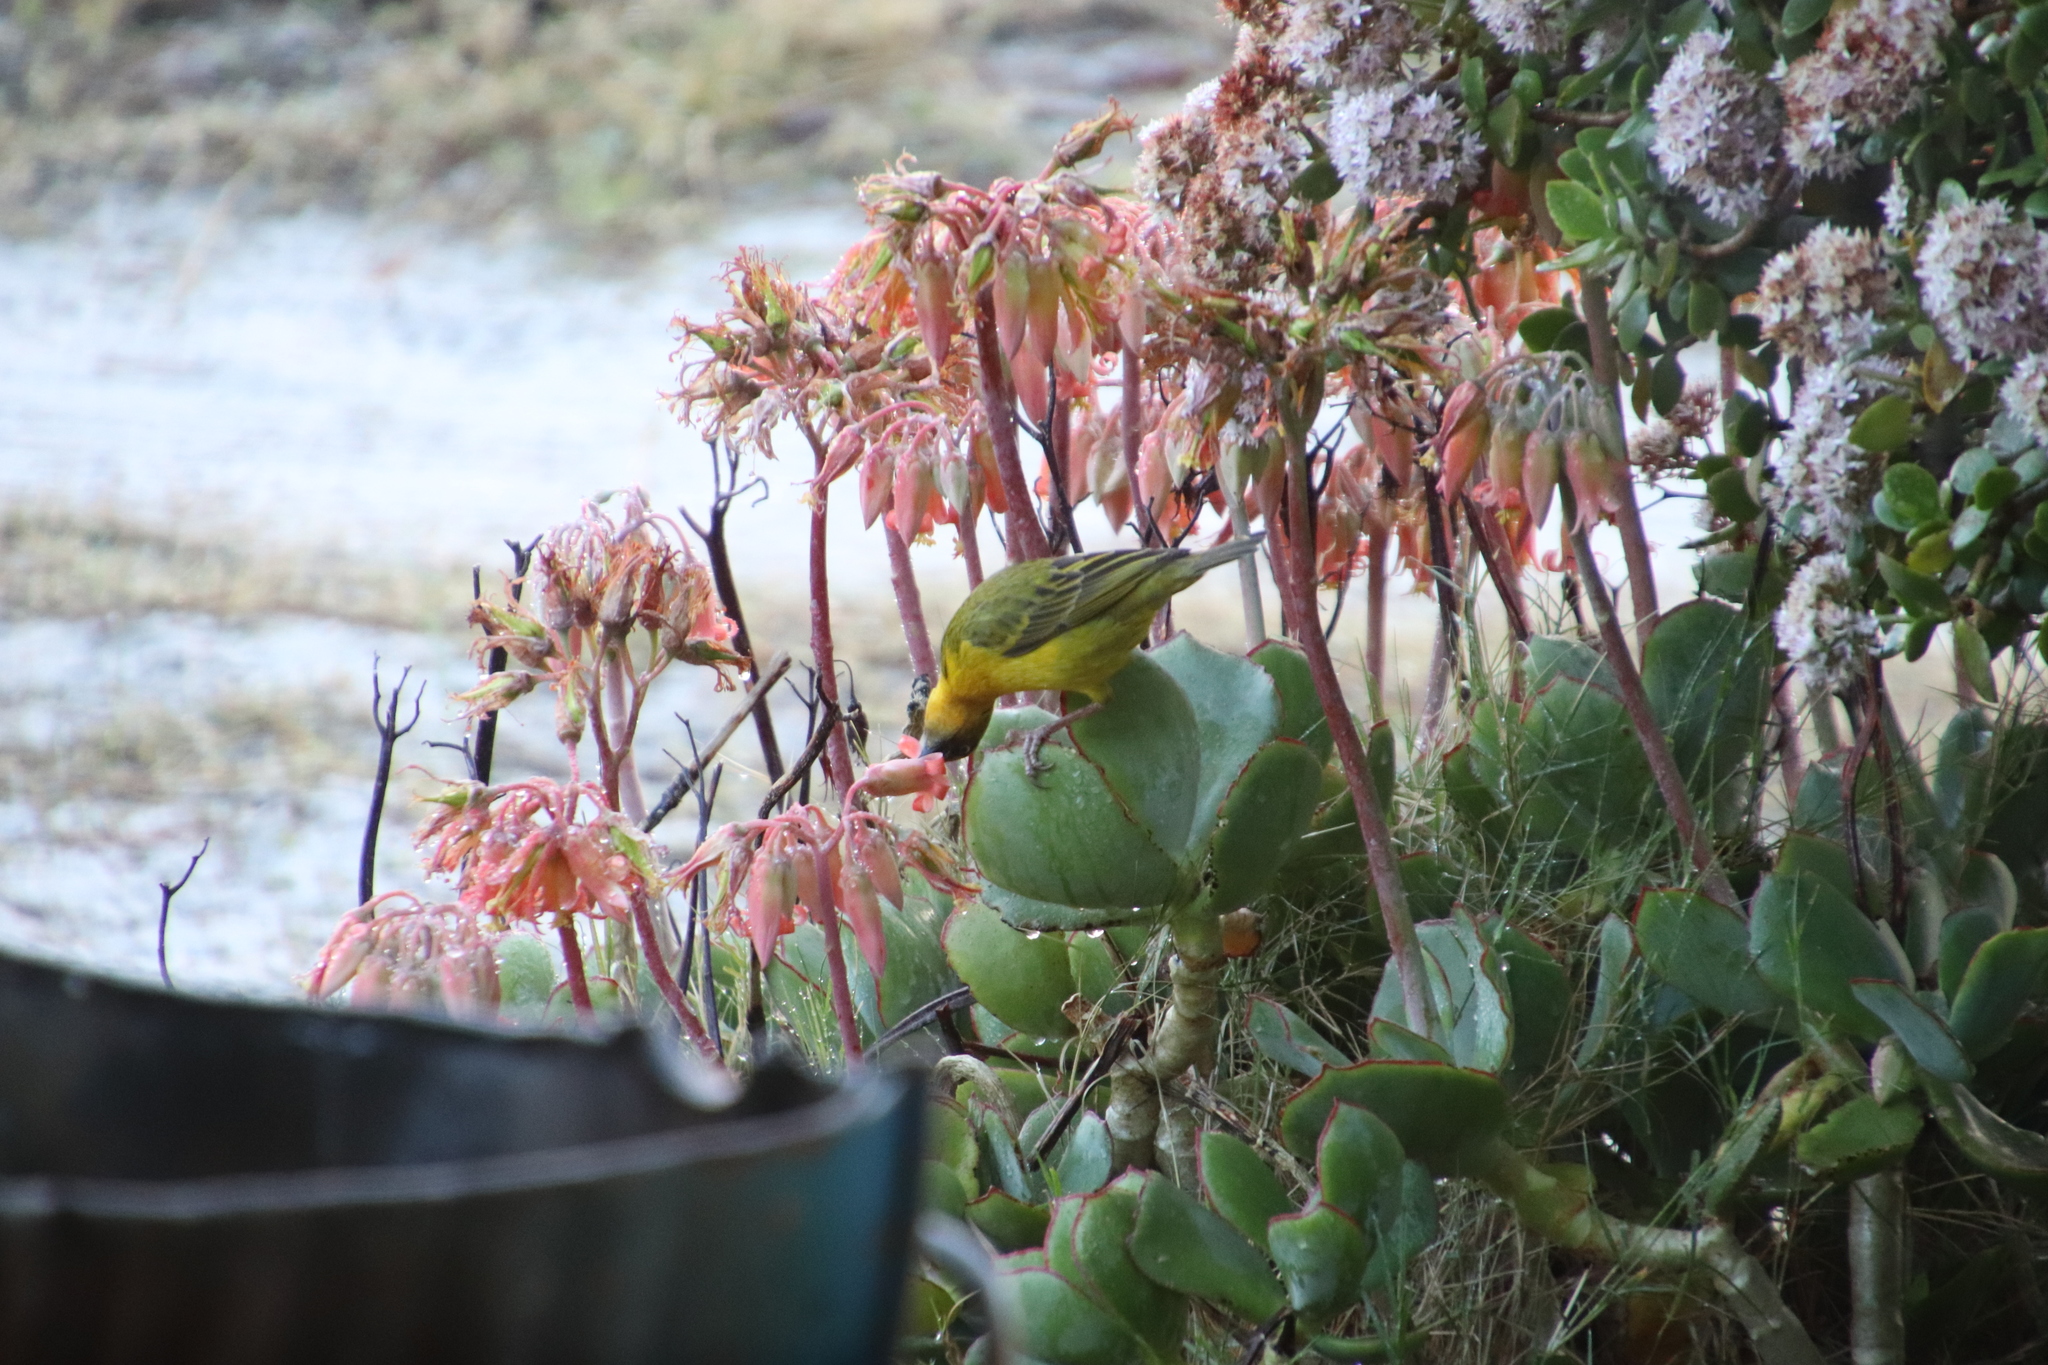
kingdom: Animalia
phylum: Chordata
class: Aves
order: Passeriformes
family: Ploceidae
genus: Ploceus
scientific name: Ploceus capensis
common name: Cape weaver
